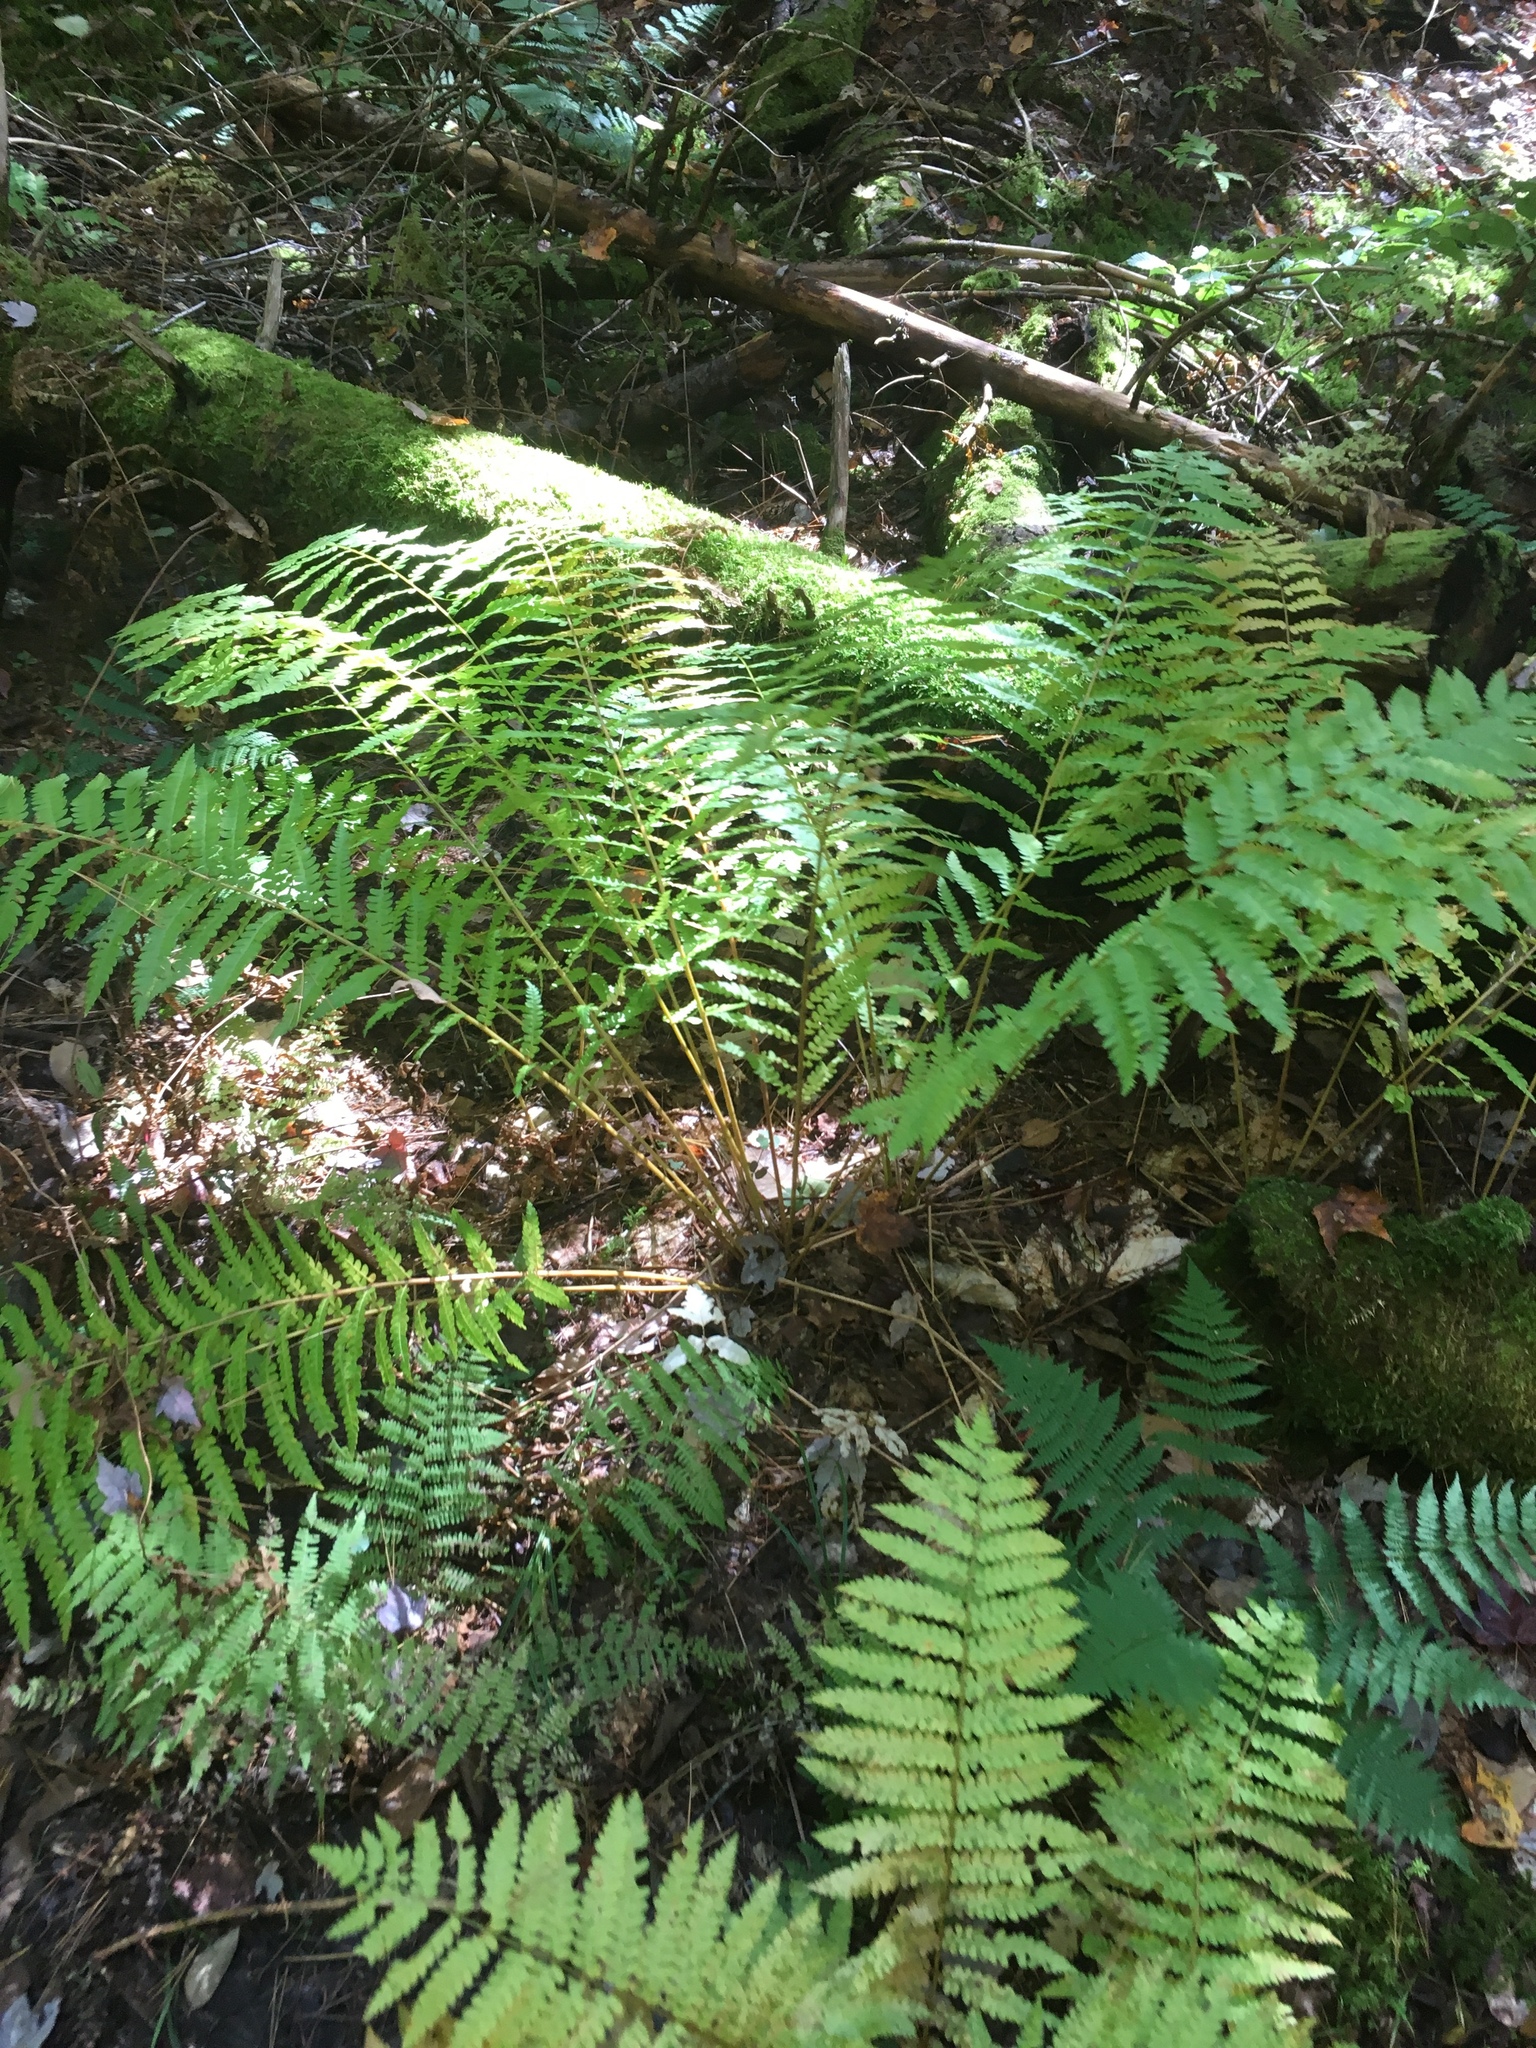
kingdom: Plantae
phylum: Tracheophyta
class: Polypodiopsida
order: Polypodiales
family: Athyriaceae
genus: Athyrium
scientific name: Athyrium angustum
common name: Northern lady fern
